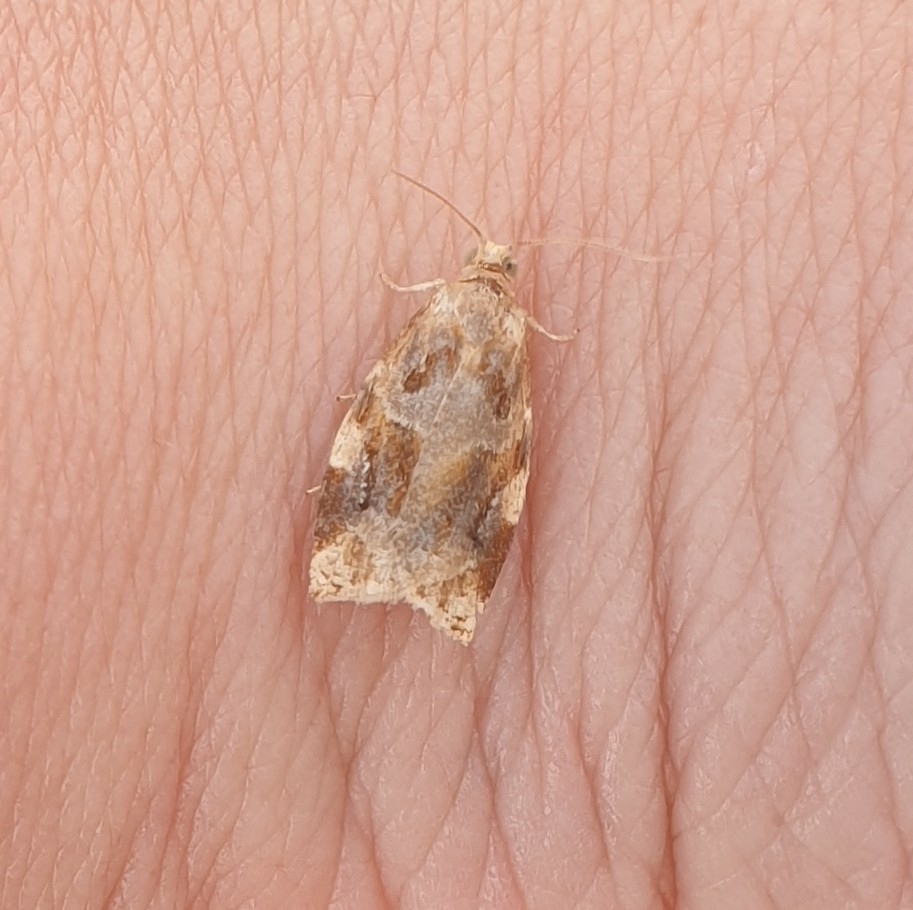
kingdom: Animalia
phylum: Arthropoda
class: Insecta
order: Lepidoptera
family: Tortricidae
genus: Archips
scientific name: Archips xylosteana
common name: Variegated golden tortrix
